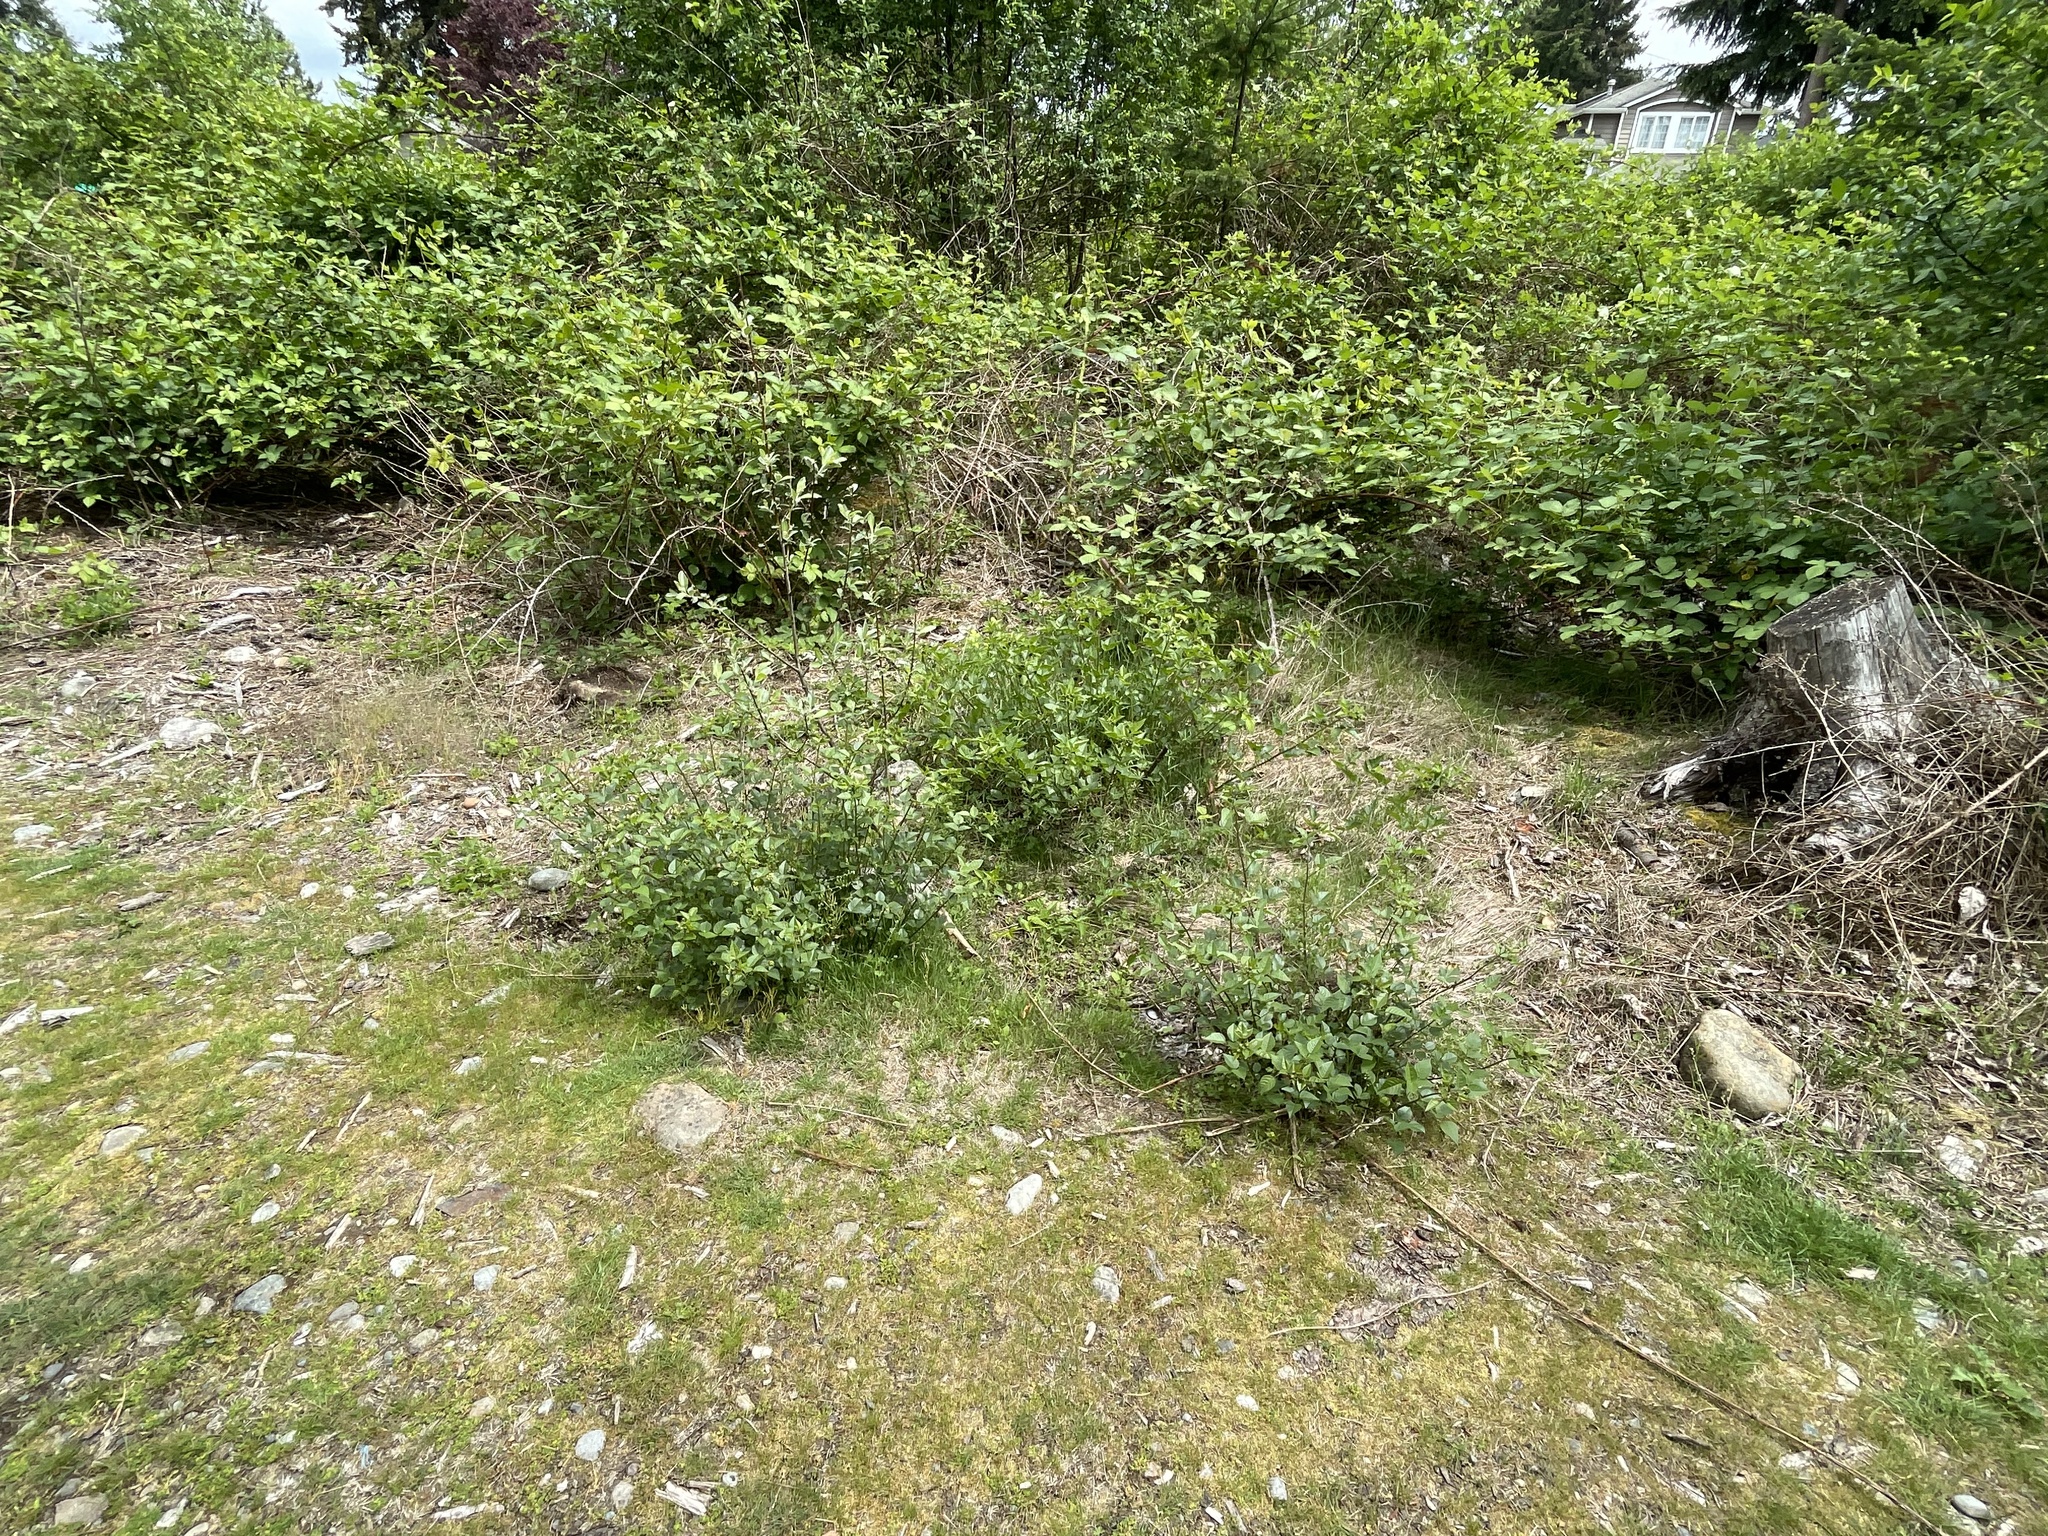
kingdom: Plantae
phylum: Tracheophyta
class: Magnoliopsida
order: Fabales
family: Fabaceae
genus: Rupertia
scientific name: Rupertia physodes
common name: California-tea
